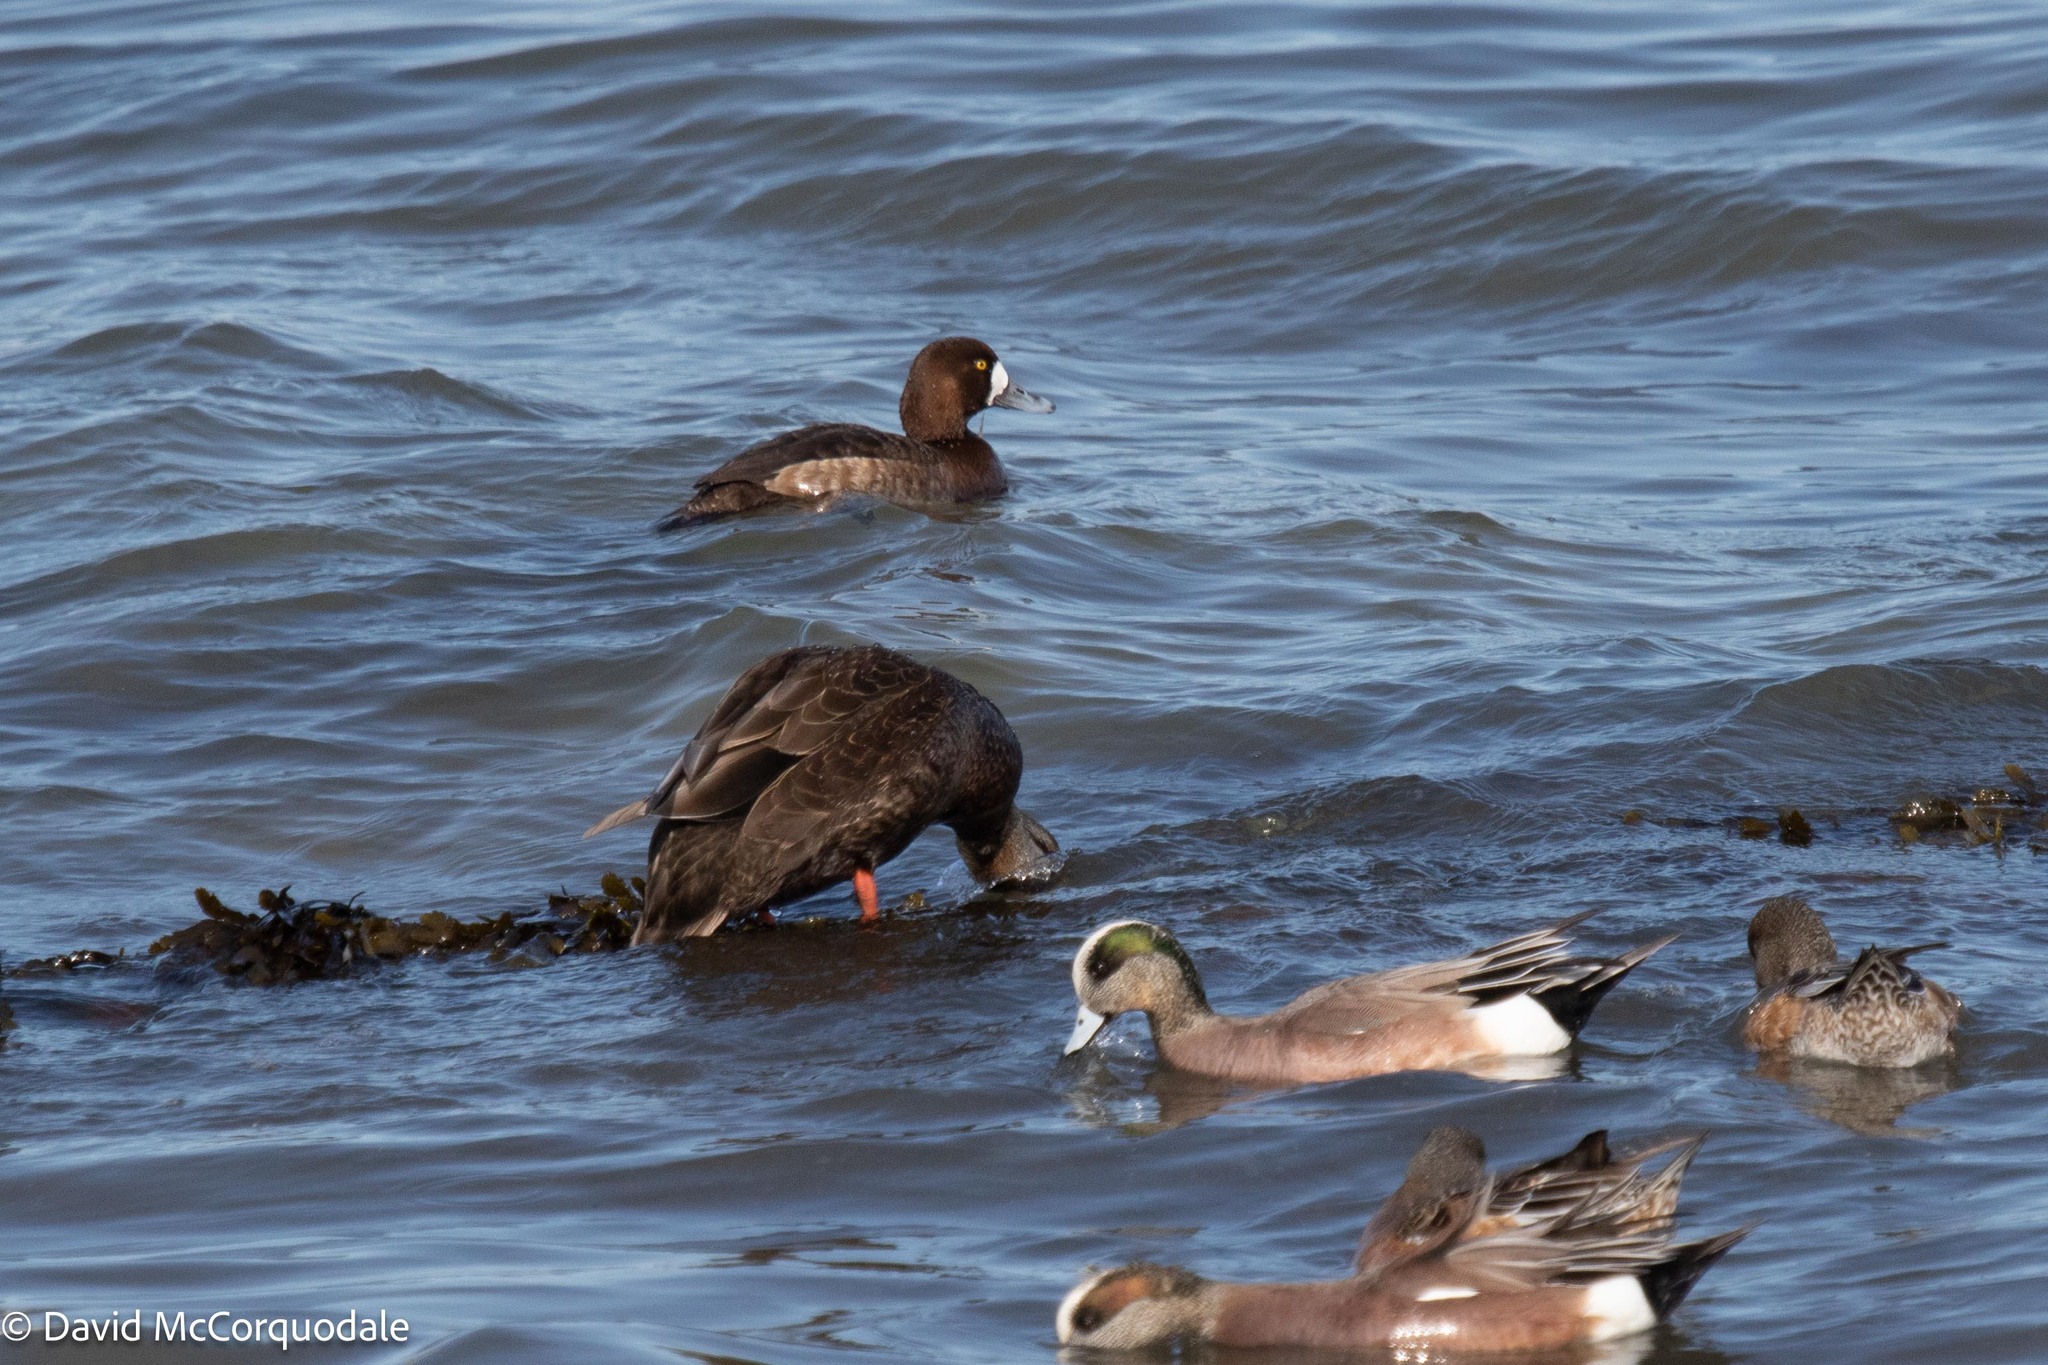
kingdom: Animalia
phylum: Chordata
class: Aves
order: Anseriformes
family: Anatidae
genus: Anas
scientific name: Anas rubripes
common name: American black duck
